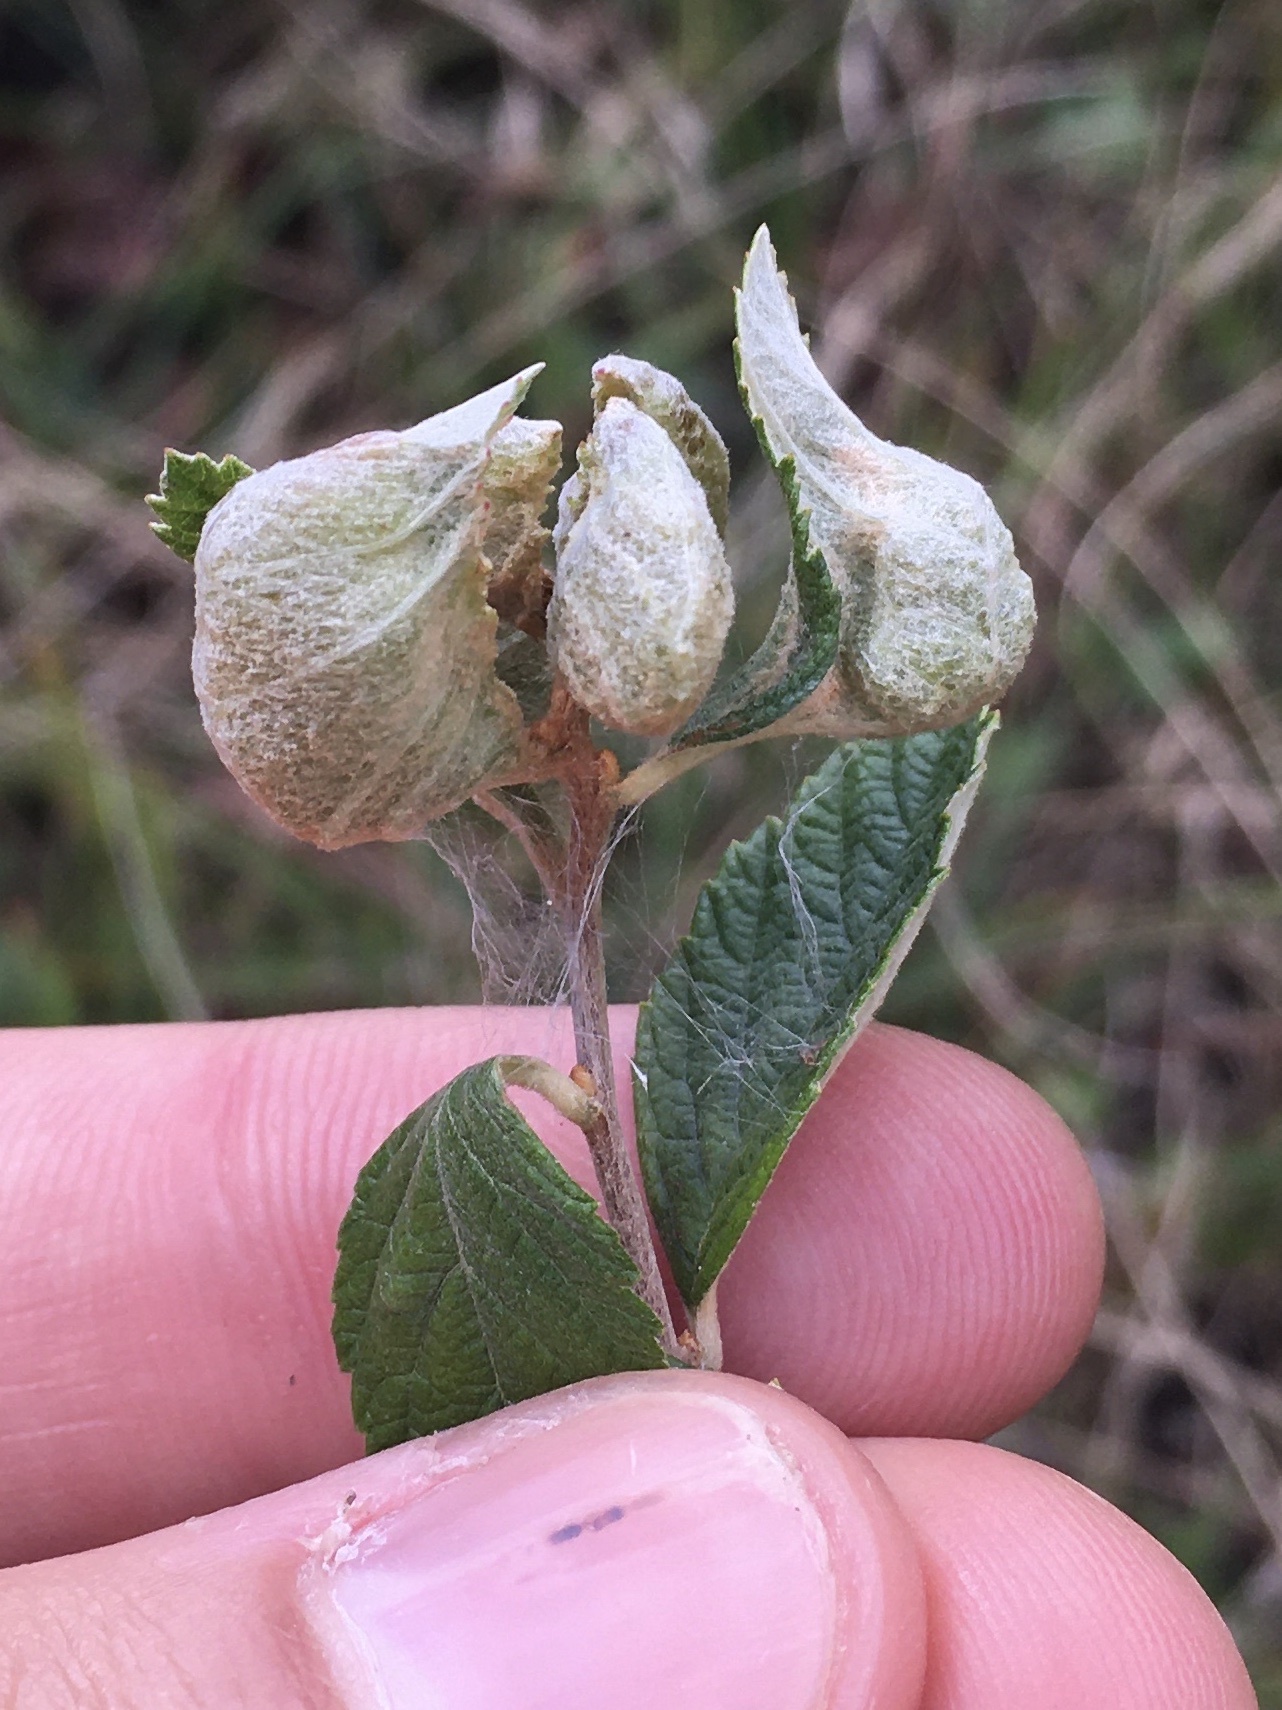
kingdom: Animalia
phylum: Arthropoda
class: Insecta
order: Diptera
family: Cecidomyiidae
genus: Dasineura
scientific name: Dasineura salicifoliae
